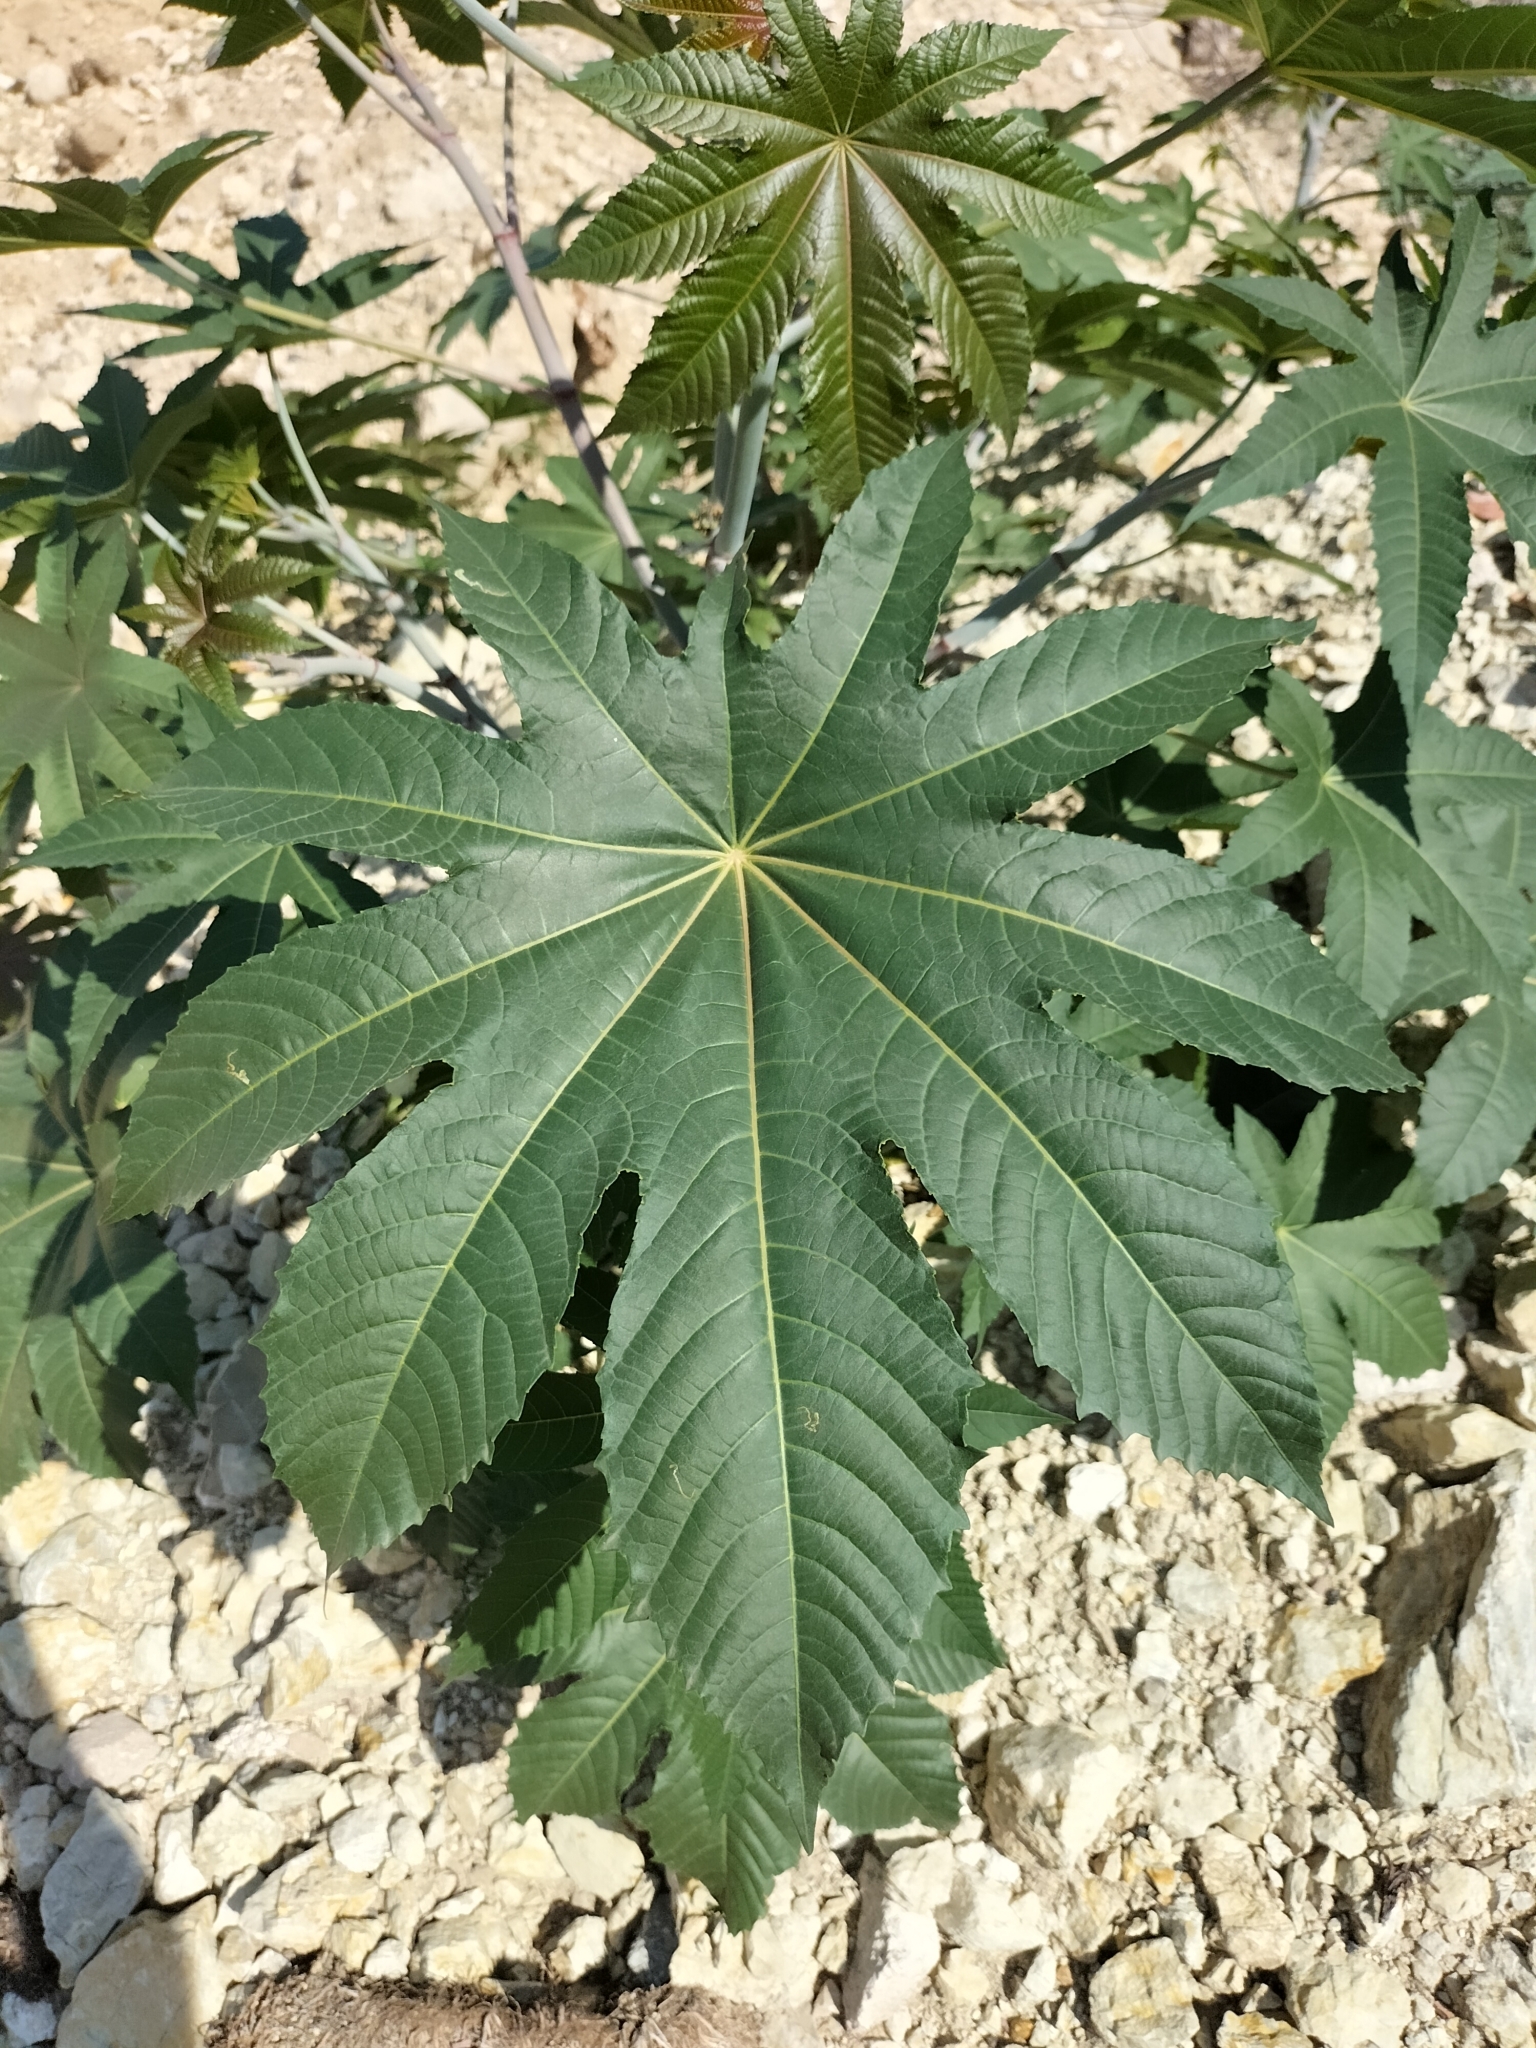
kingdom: Plantae
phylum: Tracheophyta
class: Magnoliopsida
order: Malpighiales
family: Euphorbiaceae
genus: Ricinus
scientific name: Ricinus communis
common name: Castor-oil-plant
